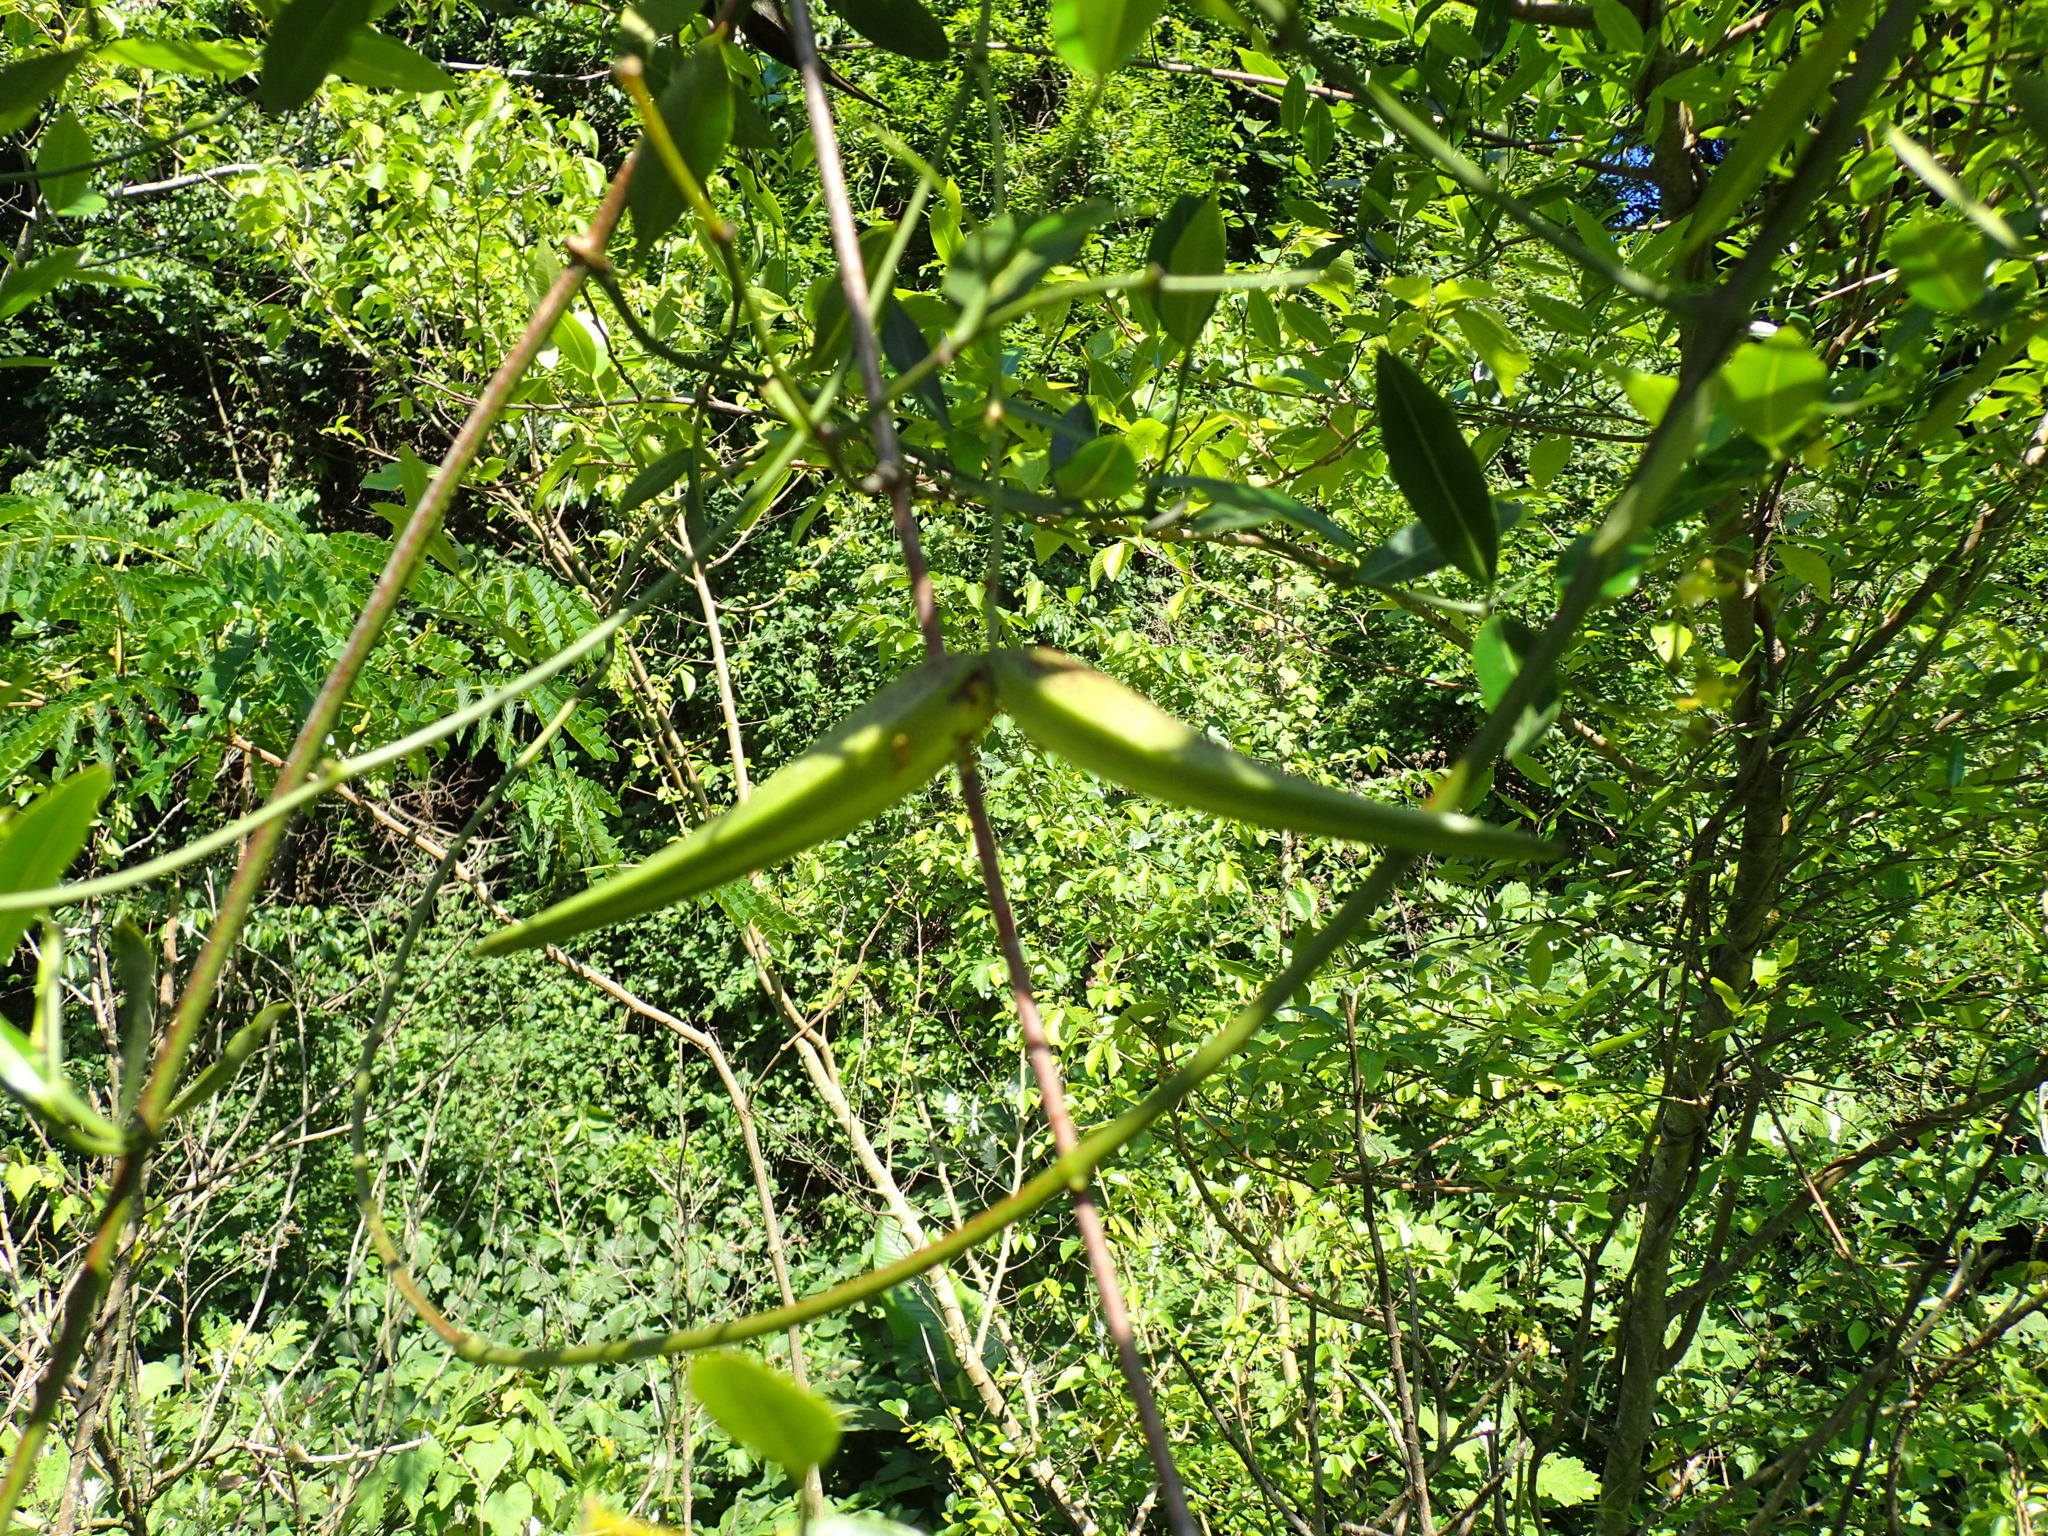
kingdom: Plantae
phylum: Tracheophyta
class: Magnoliopsida
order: Gentianales
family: Apocynaceae
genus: Secamone
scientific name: Secamone gerrardii
